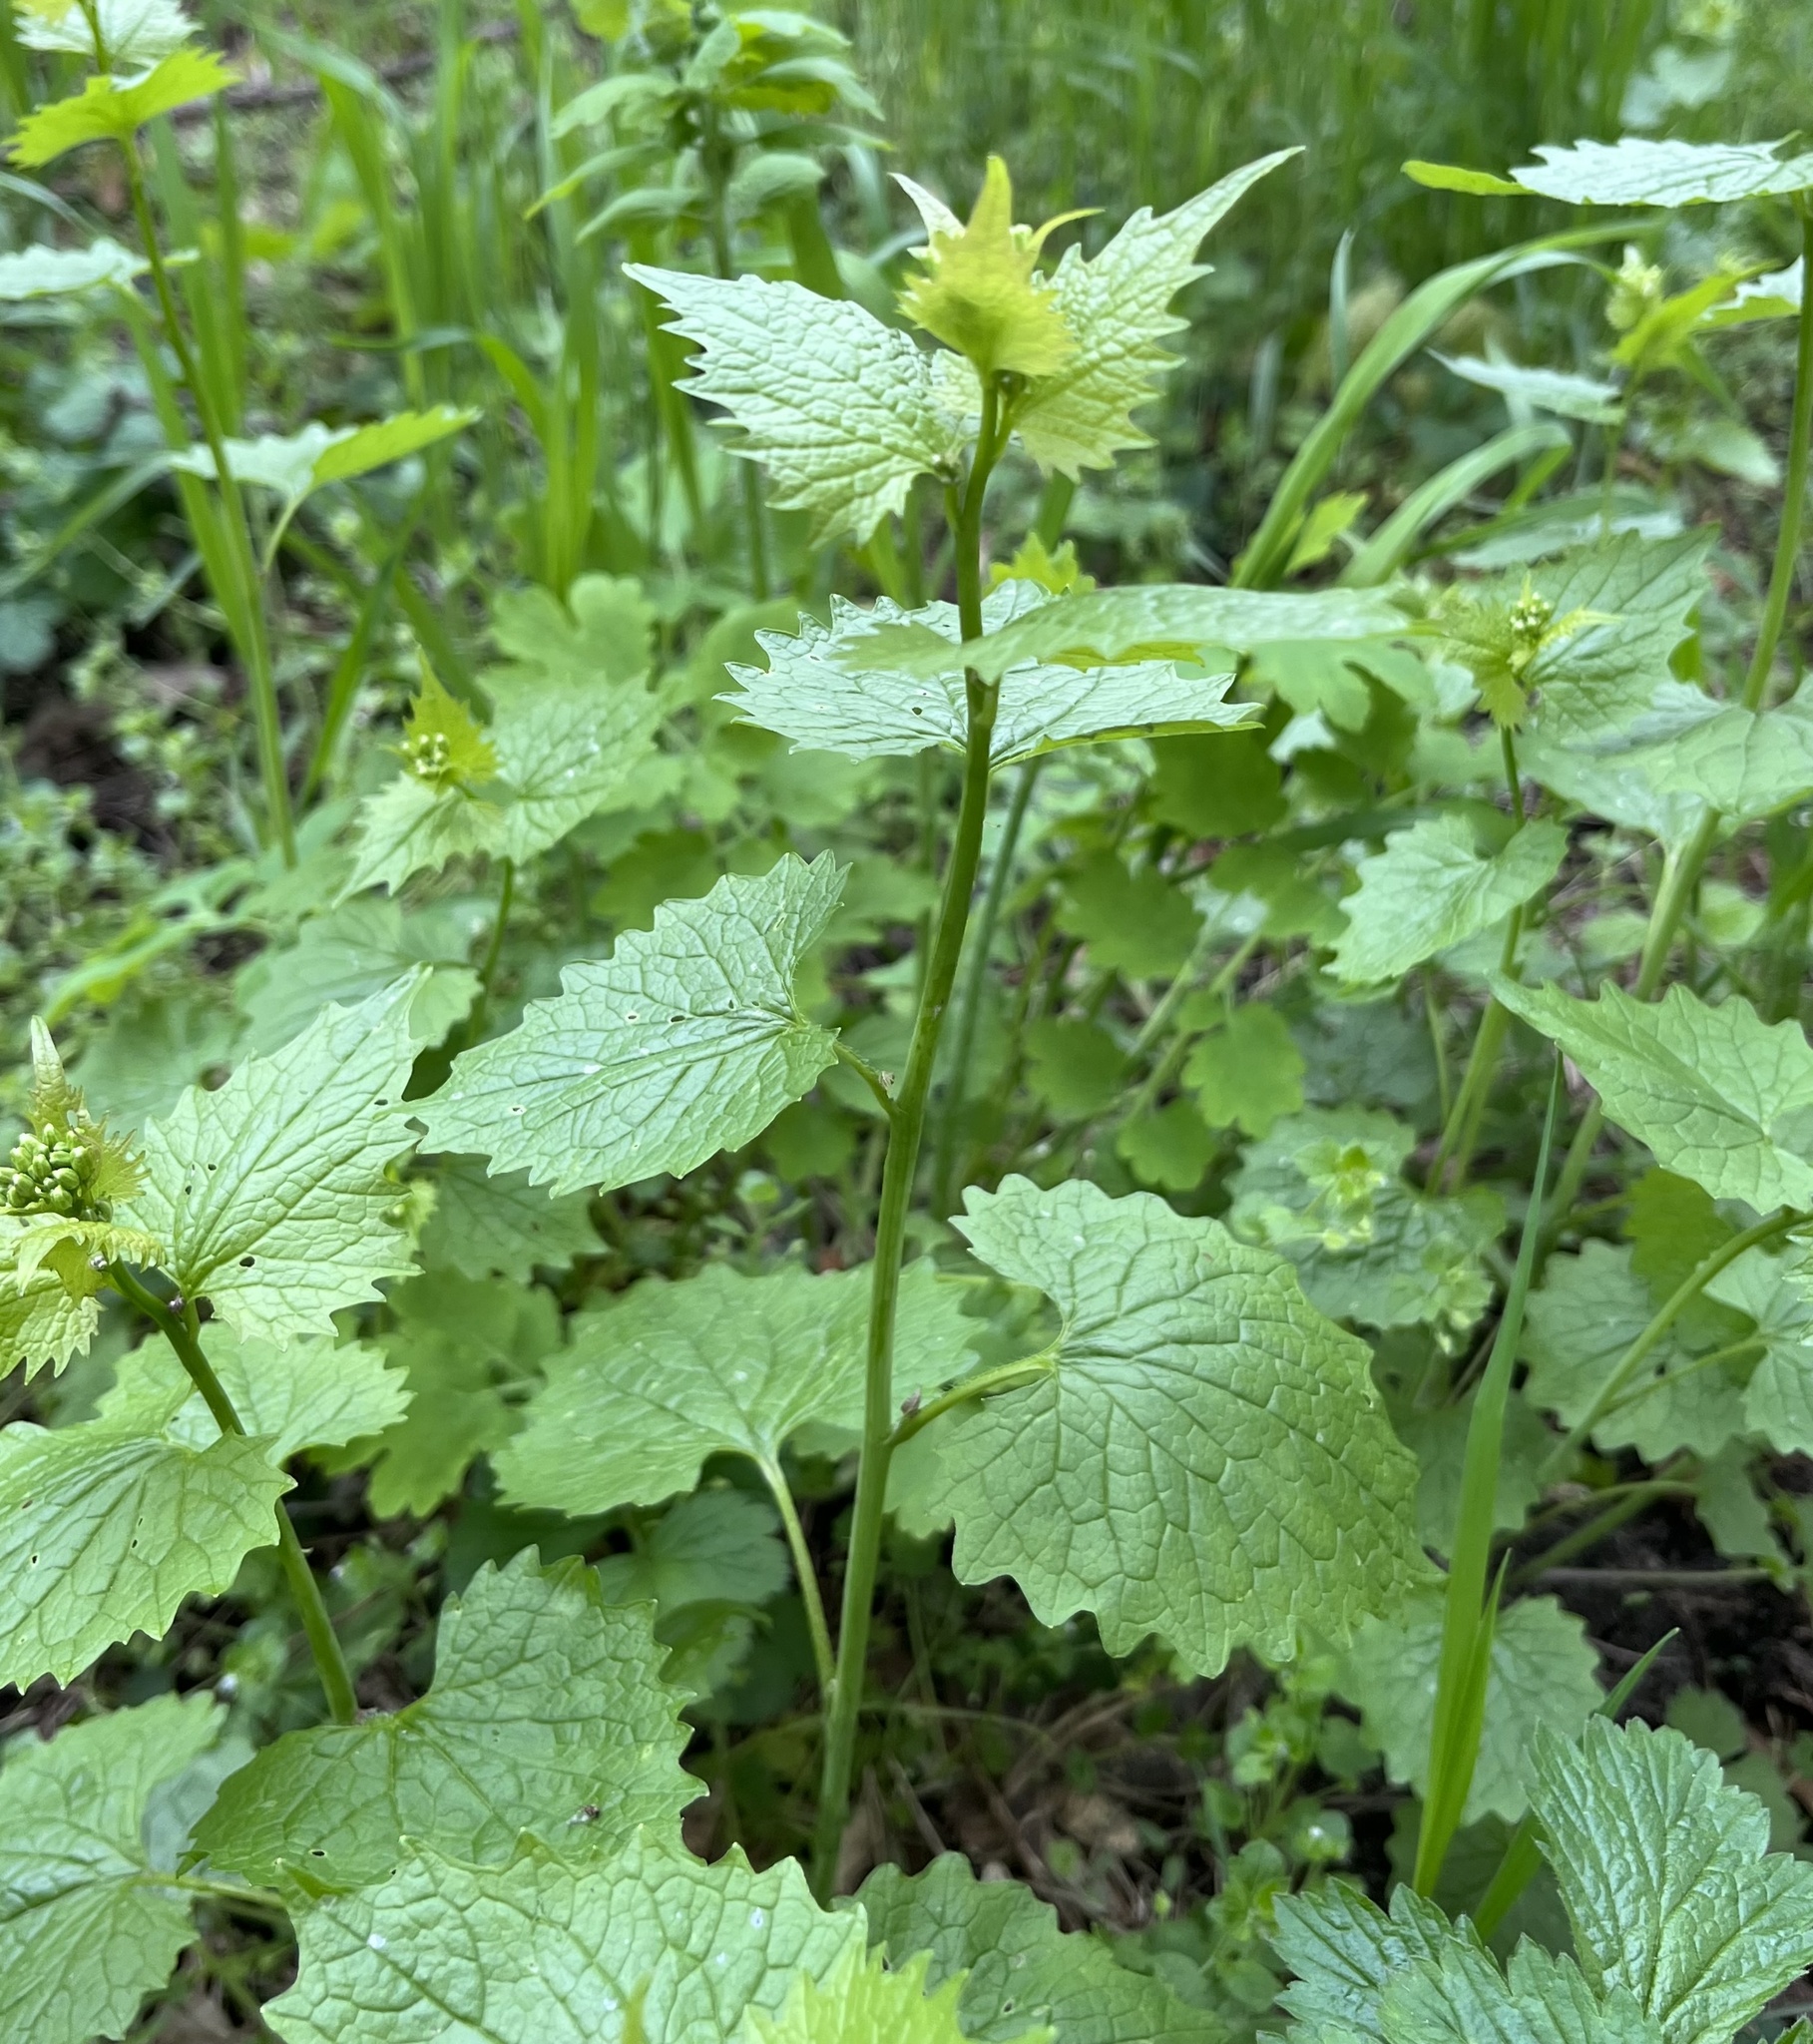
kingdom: Plantae
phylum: Tracheophyta
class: Magnoliopsida
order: Brassicales
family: Brassicaceae
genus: Alliaria
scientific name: Alliaria petiolata
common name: Garlic mustard
